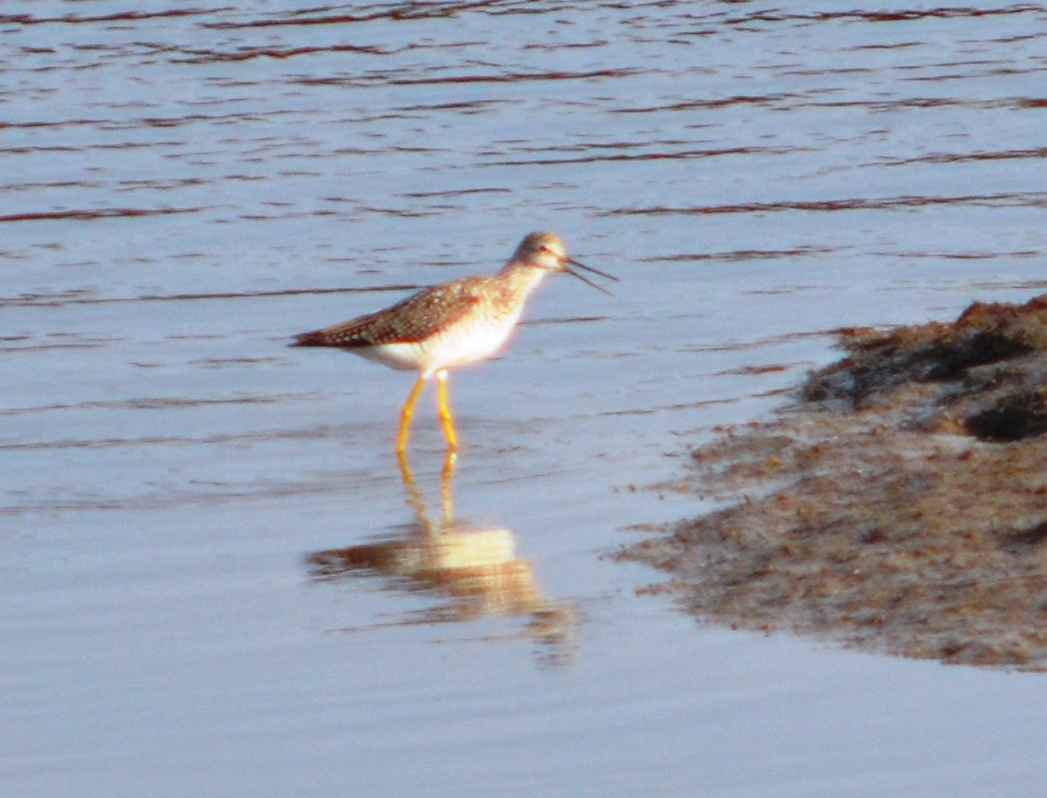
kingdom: Animalia
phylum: Chordata
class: Aves
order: Charadriiformes
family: Scolopacidae
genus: Tringa
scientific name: Tringa melanoleuca
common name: Greater yellowlegs
